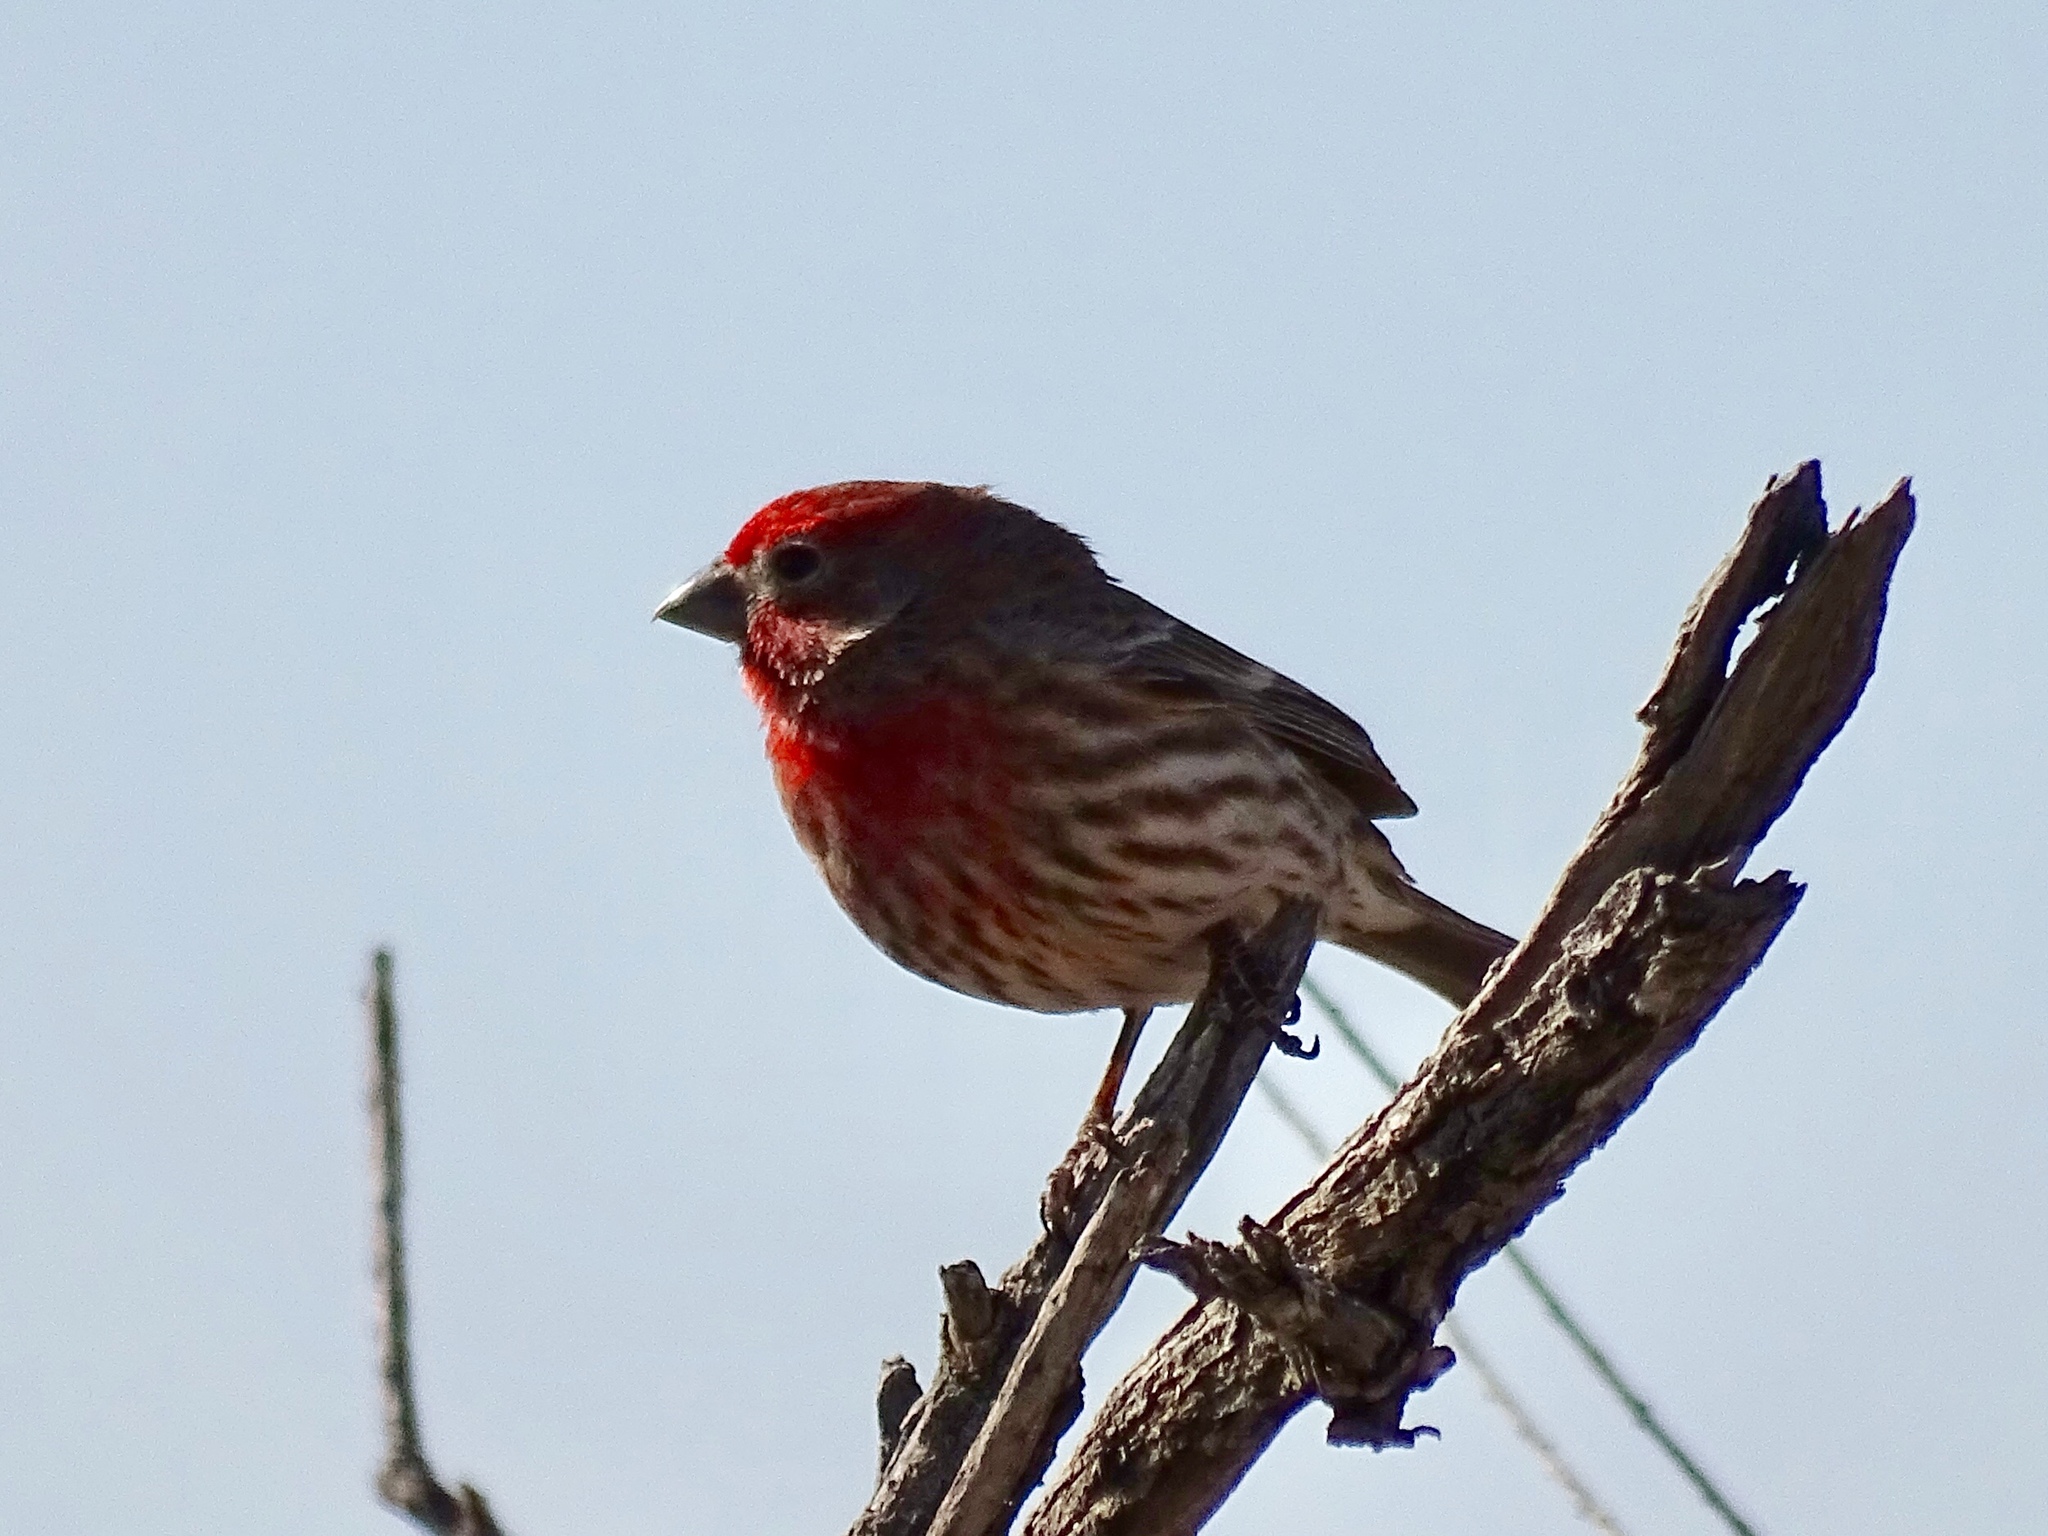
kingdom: Animalia
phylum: Chordata
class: Aves
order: Passeriformes
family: Fringillidae
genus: Haemorhous
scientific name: Haemorhous mexicanus
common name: House finch
